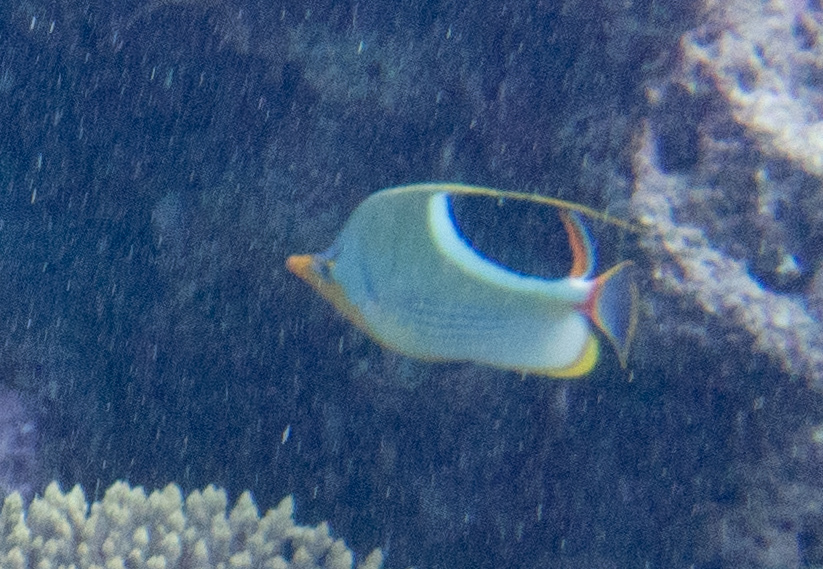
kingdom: Animalia
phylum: Chordata
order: Perciformes
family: Chaetodontidae
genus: Chaetodon
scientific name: Chaetodon ephippium
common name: Saddled butterflyfish
